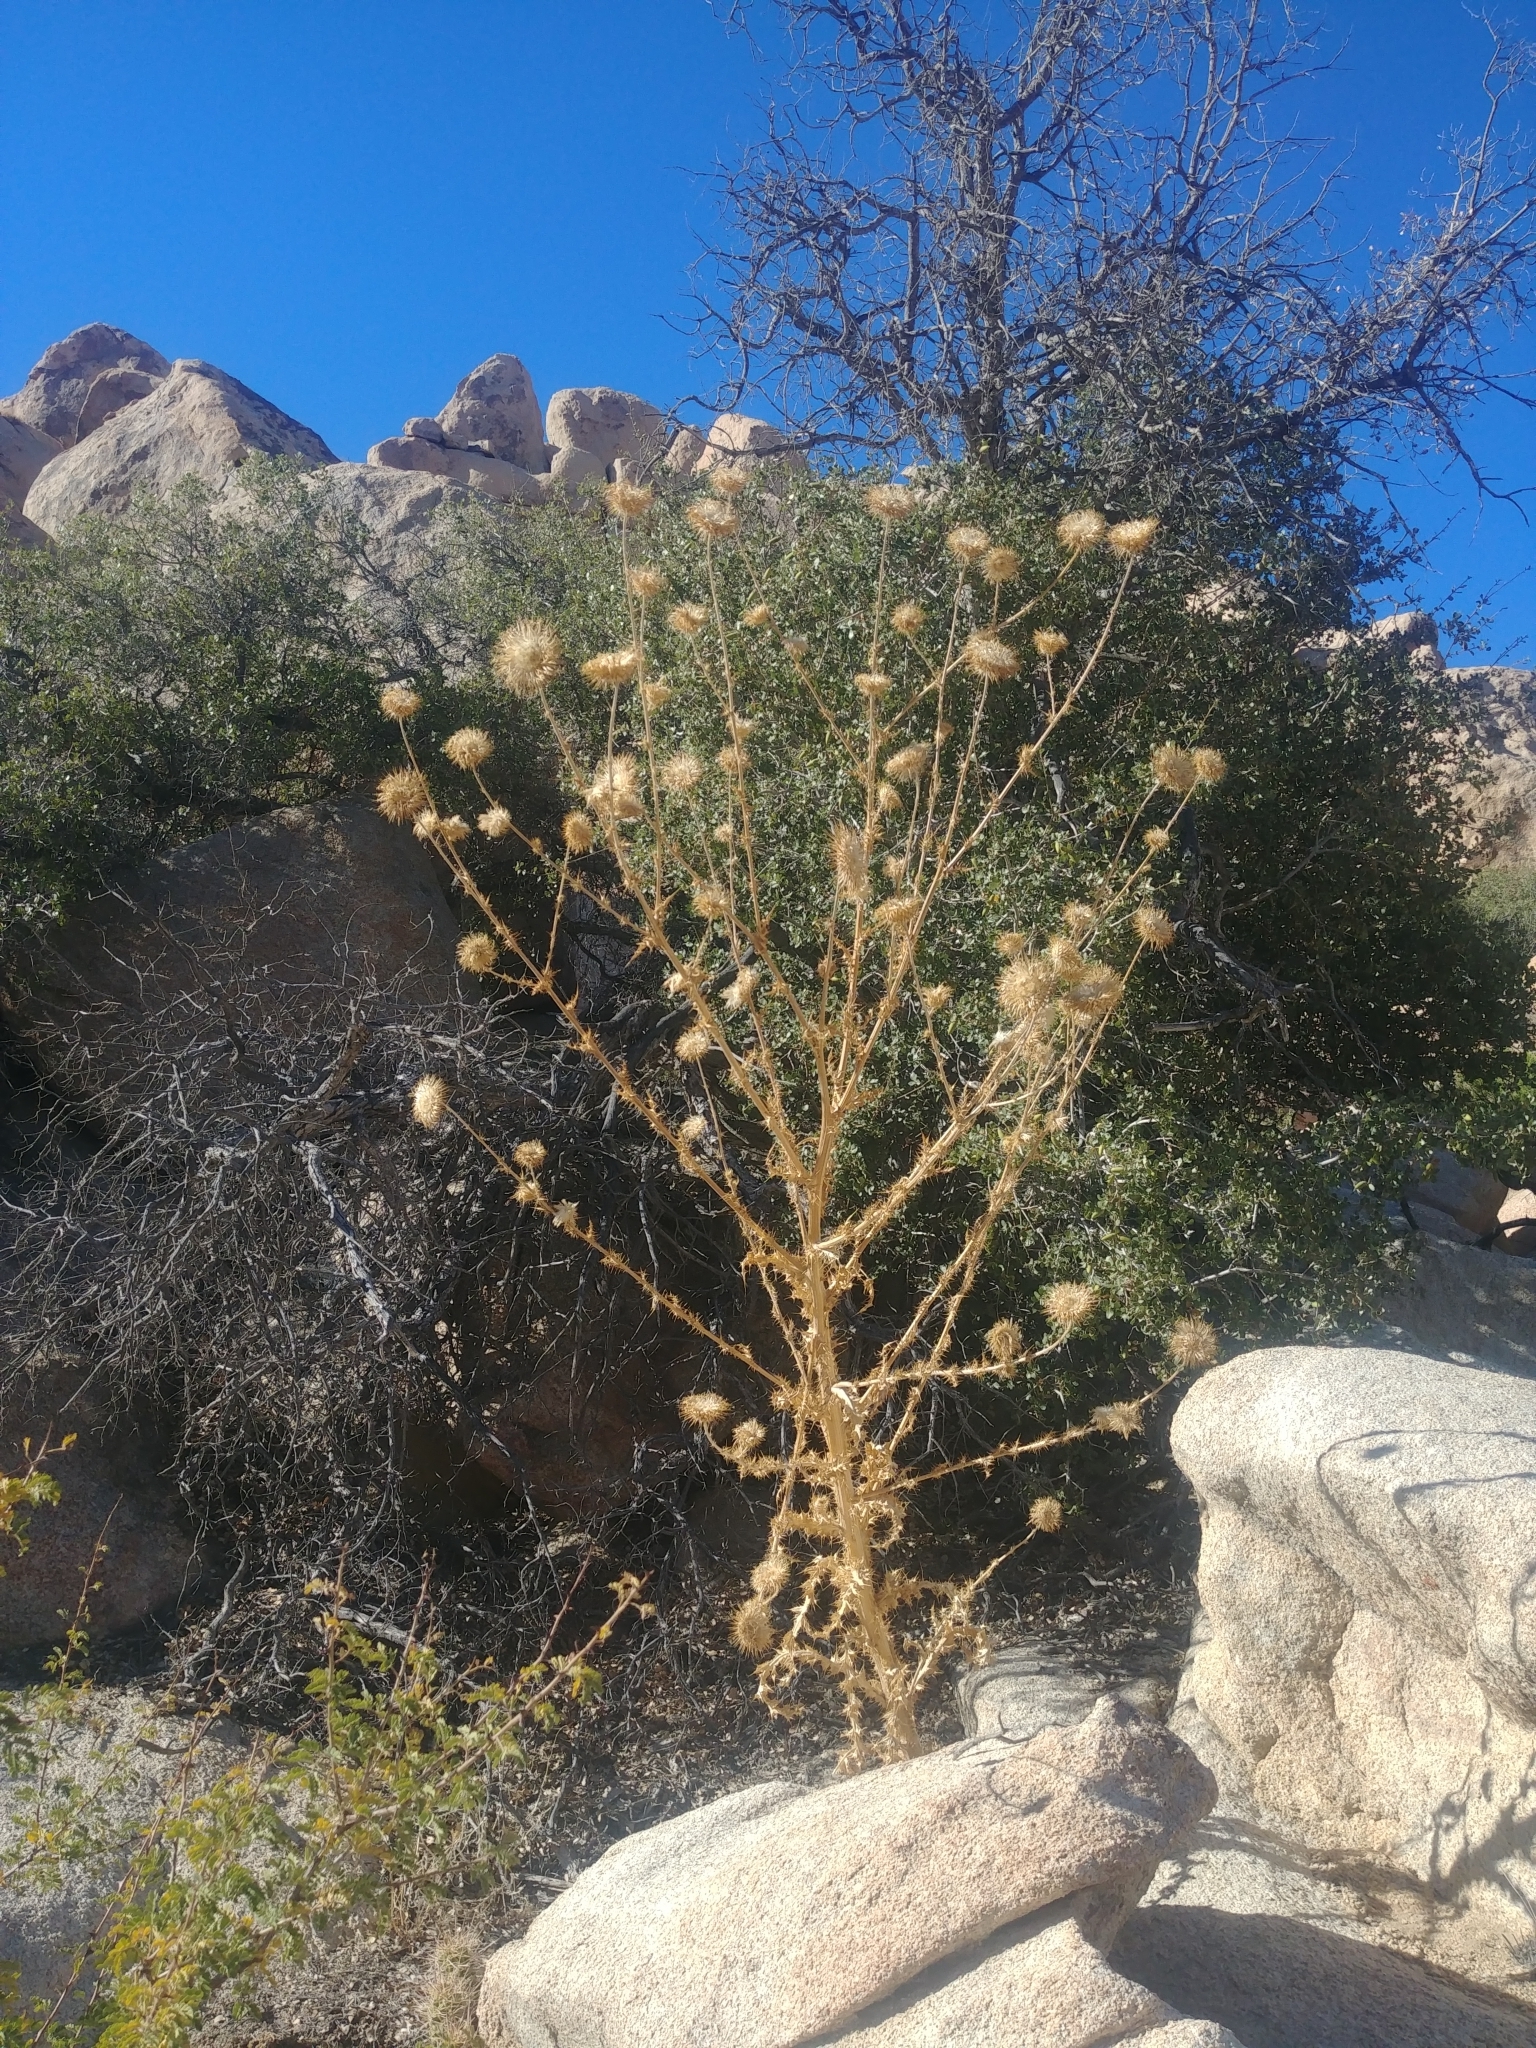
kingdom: Plantae
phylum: Tracheophyta
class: Magnoliopsida
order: Asterales
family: Asteraceae
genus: Cirsium
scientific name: Cirsium neomexicanum
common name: New mexico thistle
